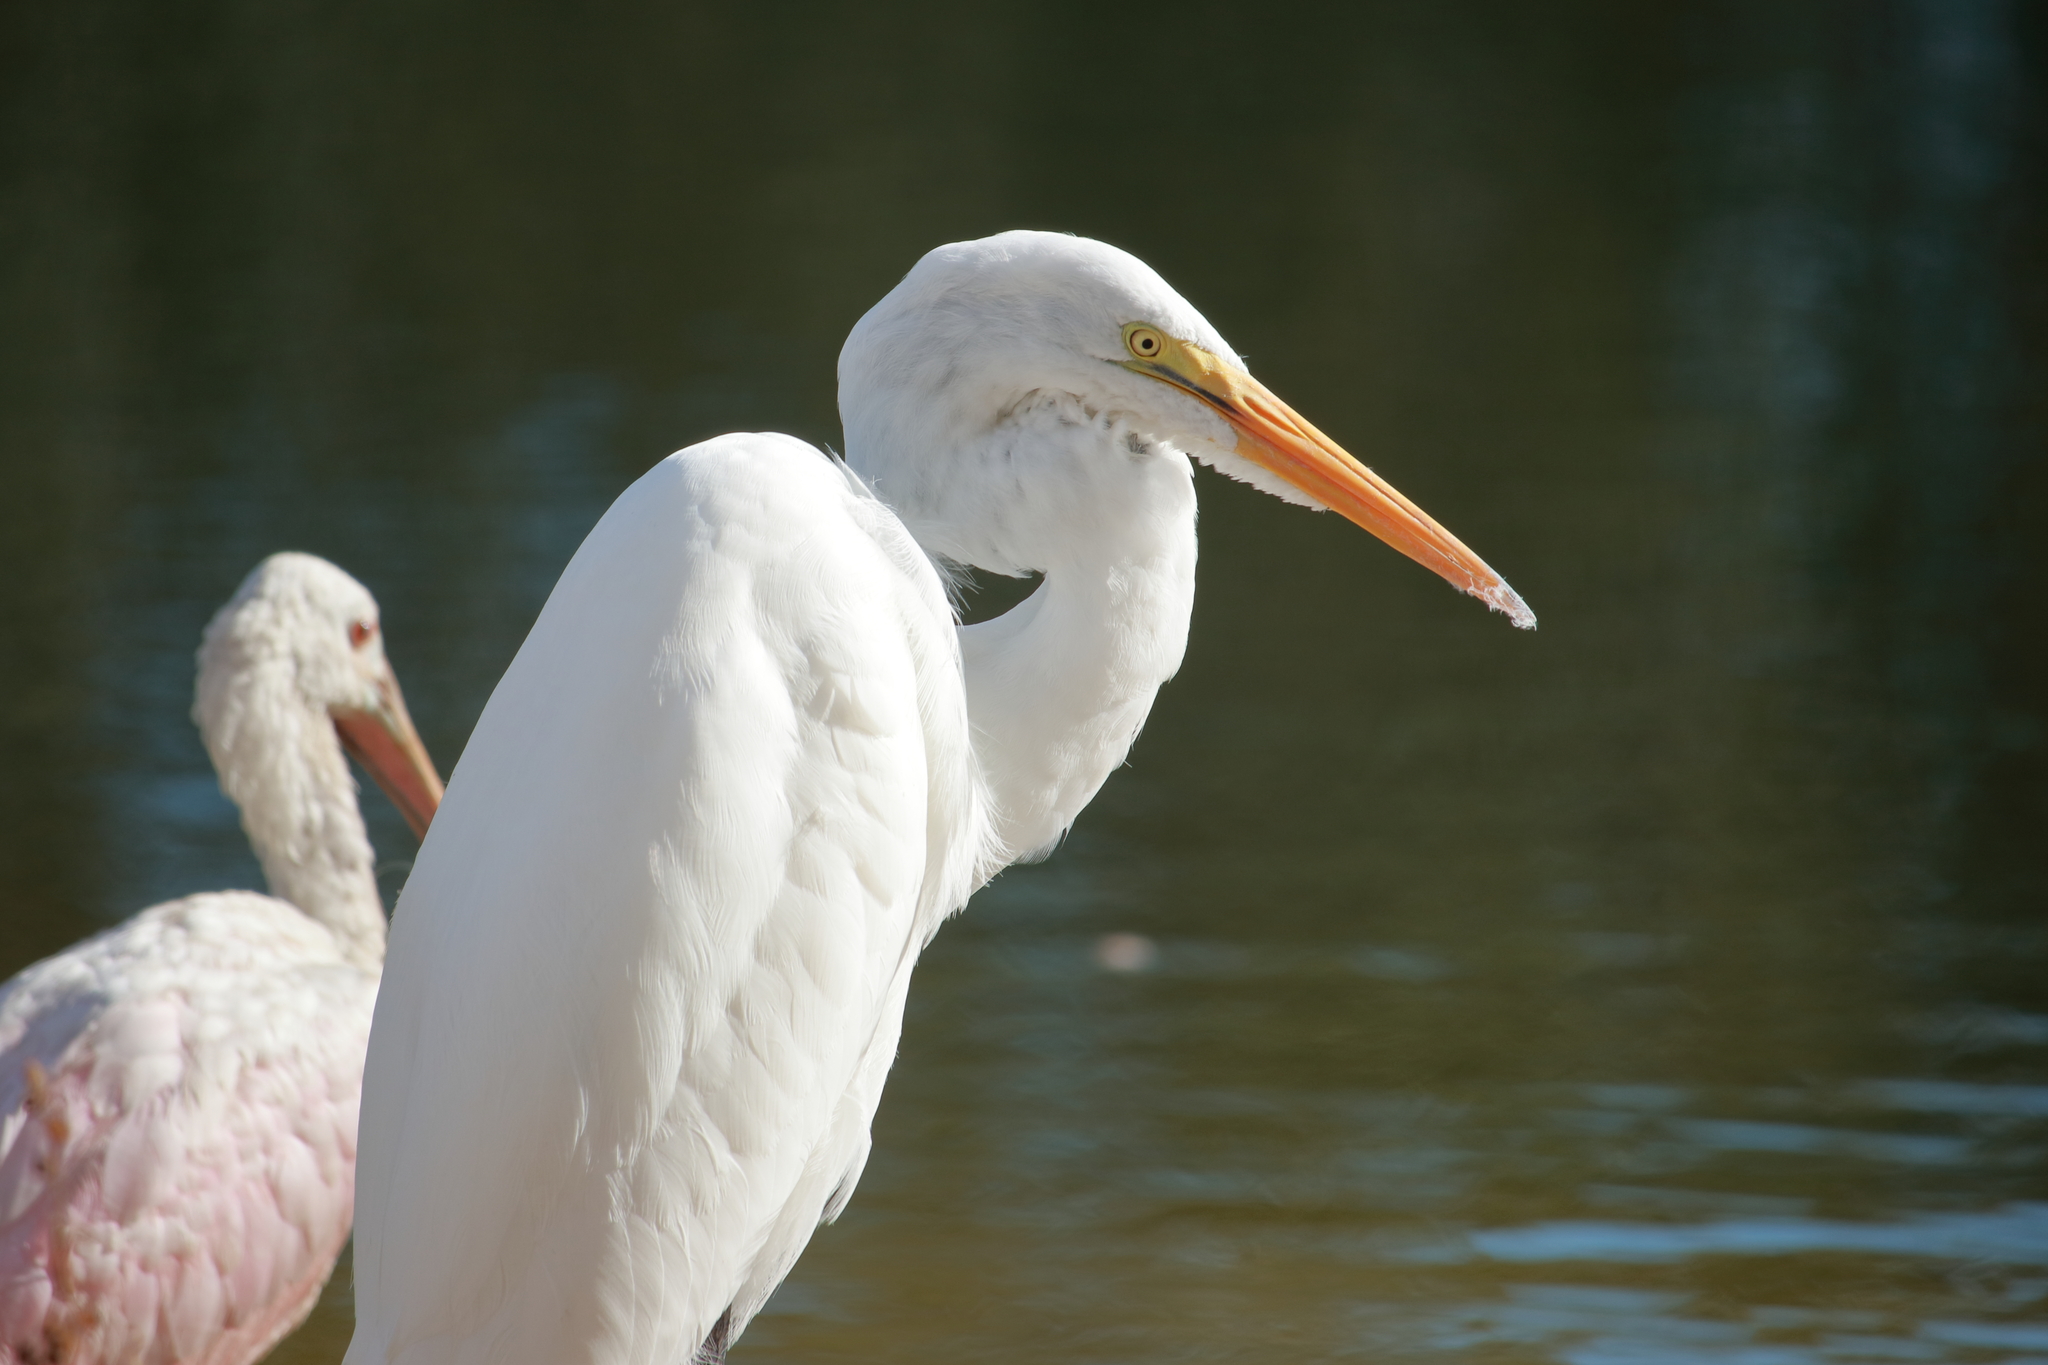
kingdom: Animalia
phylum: Chordata
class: Aves
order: Pelecaniformes
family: Ardeidae
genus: Ardea
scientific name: Ardea alba
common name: Great egret
